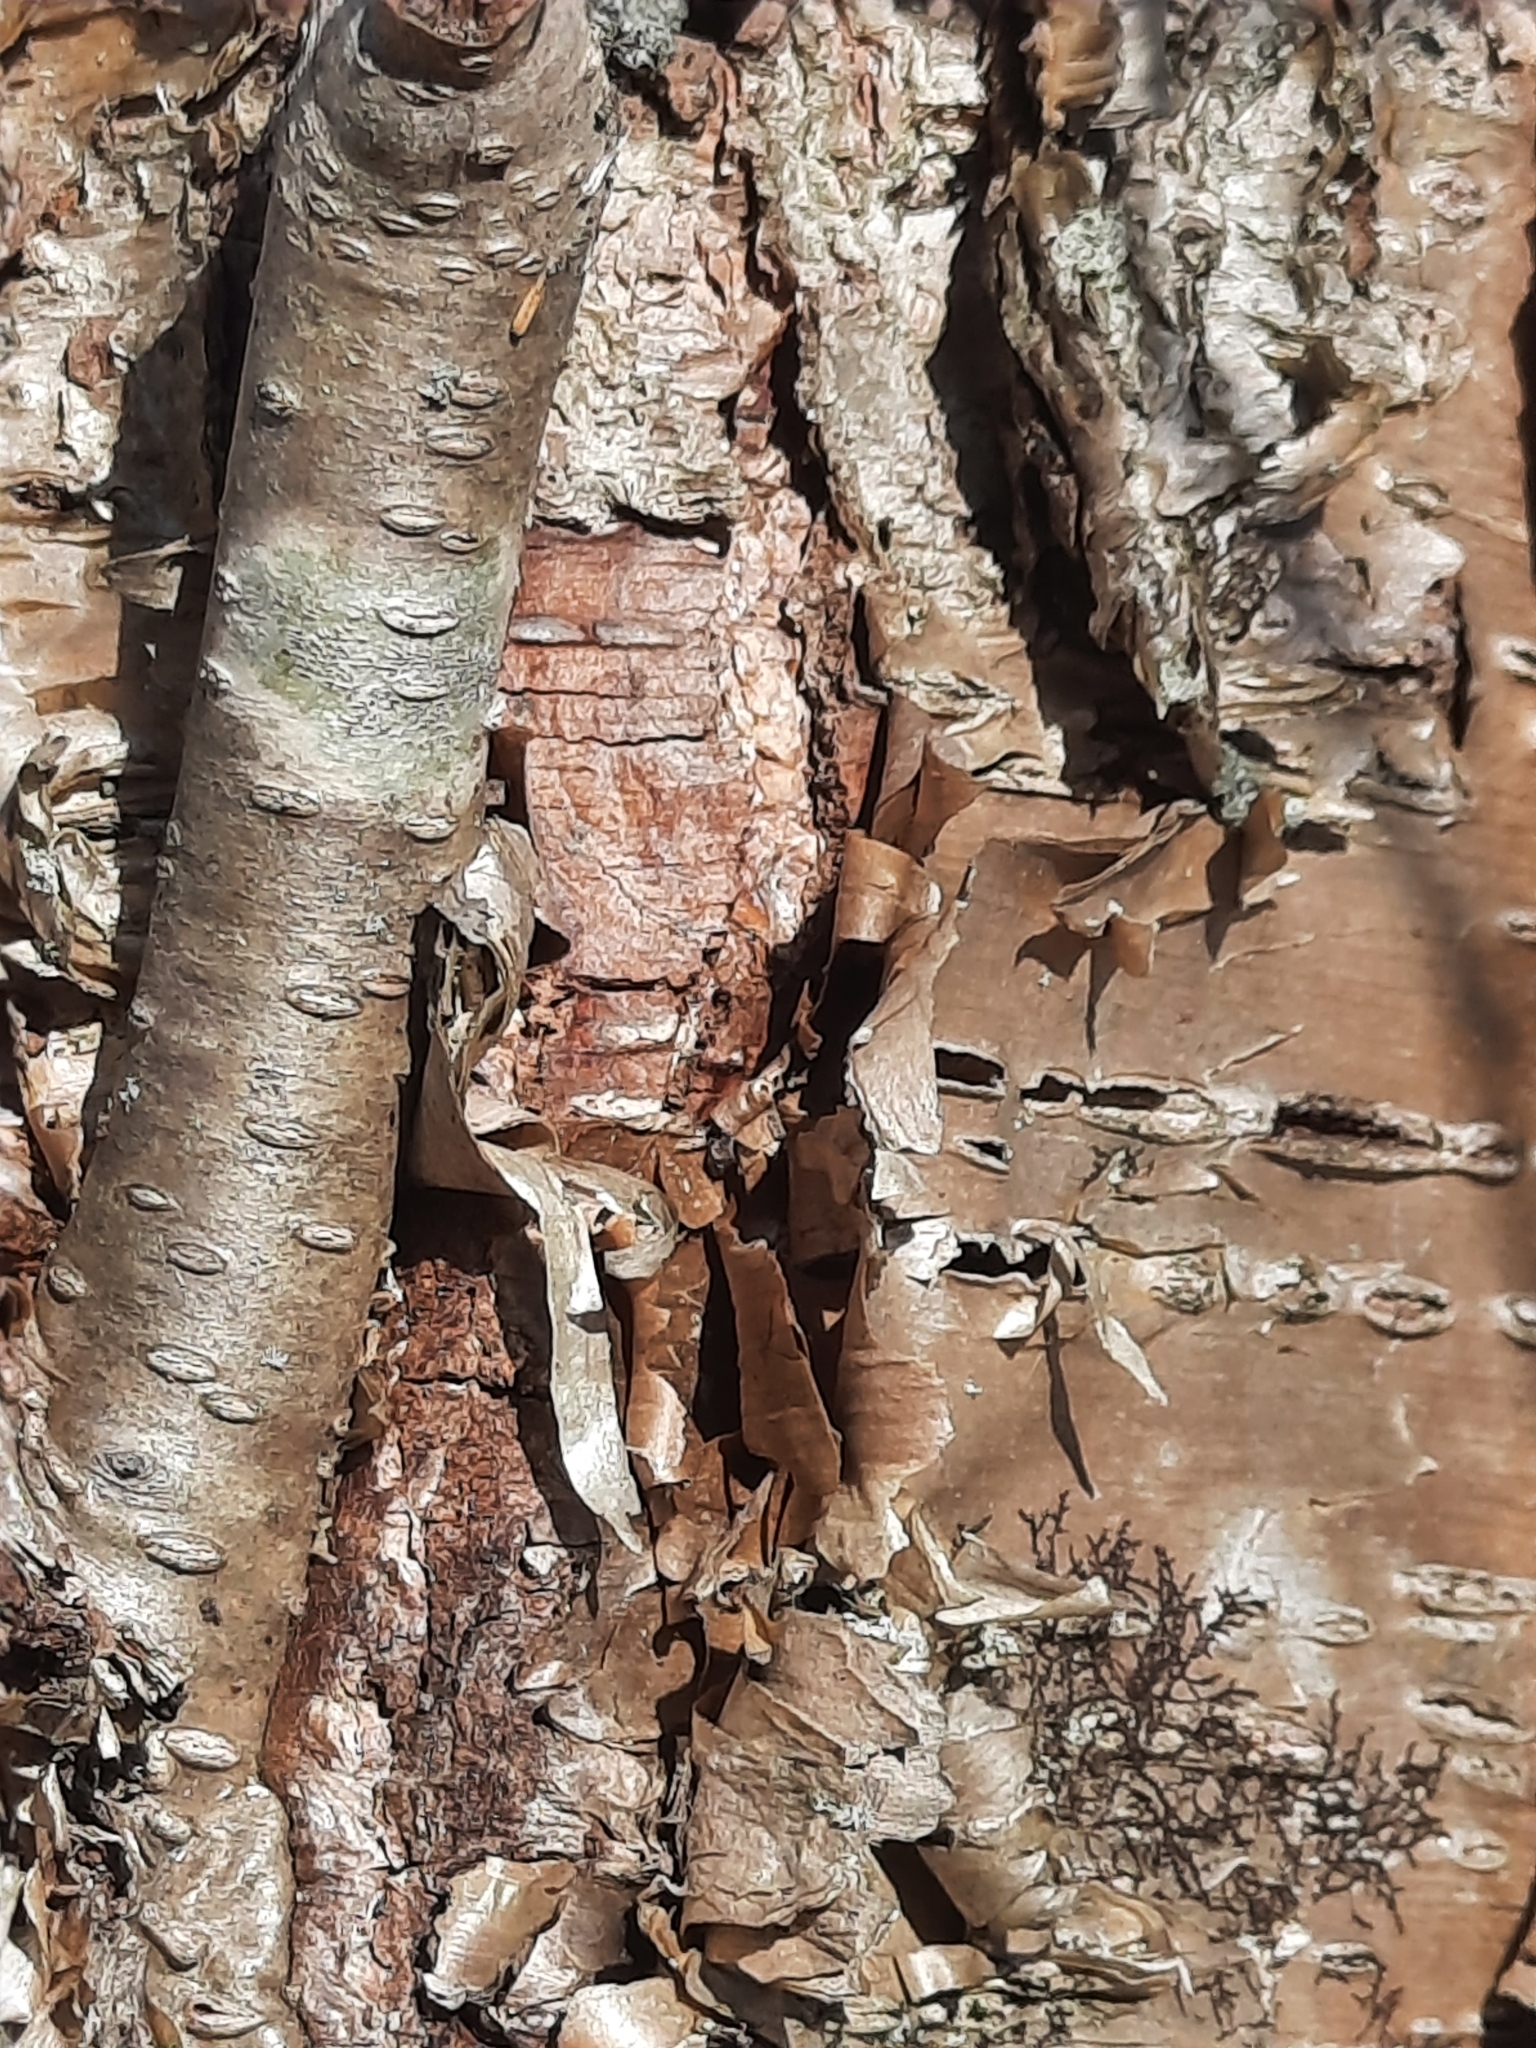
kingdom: Plantae
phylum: Tracheophyta
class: Magnoliopsida
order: Fagales
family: Betulaceae
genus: Betula
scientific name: Betula alleghaniensis
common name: Yellow birch
